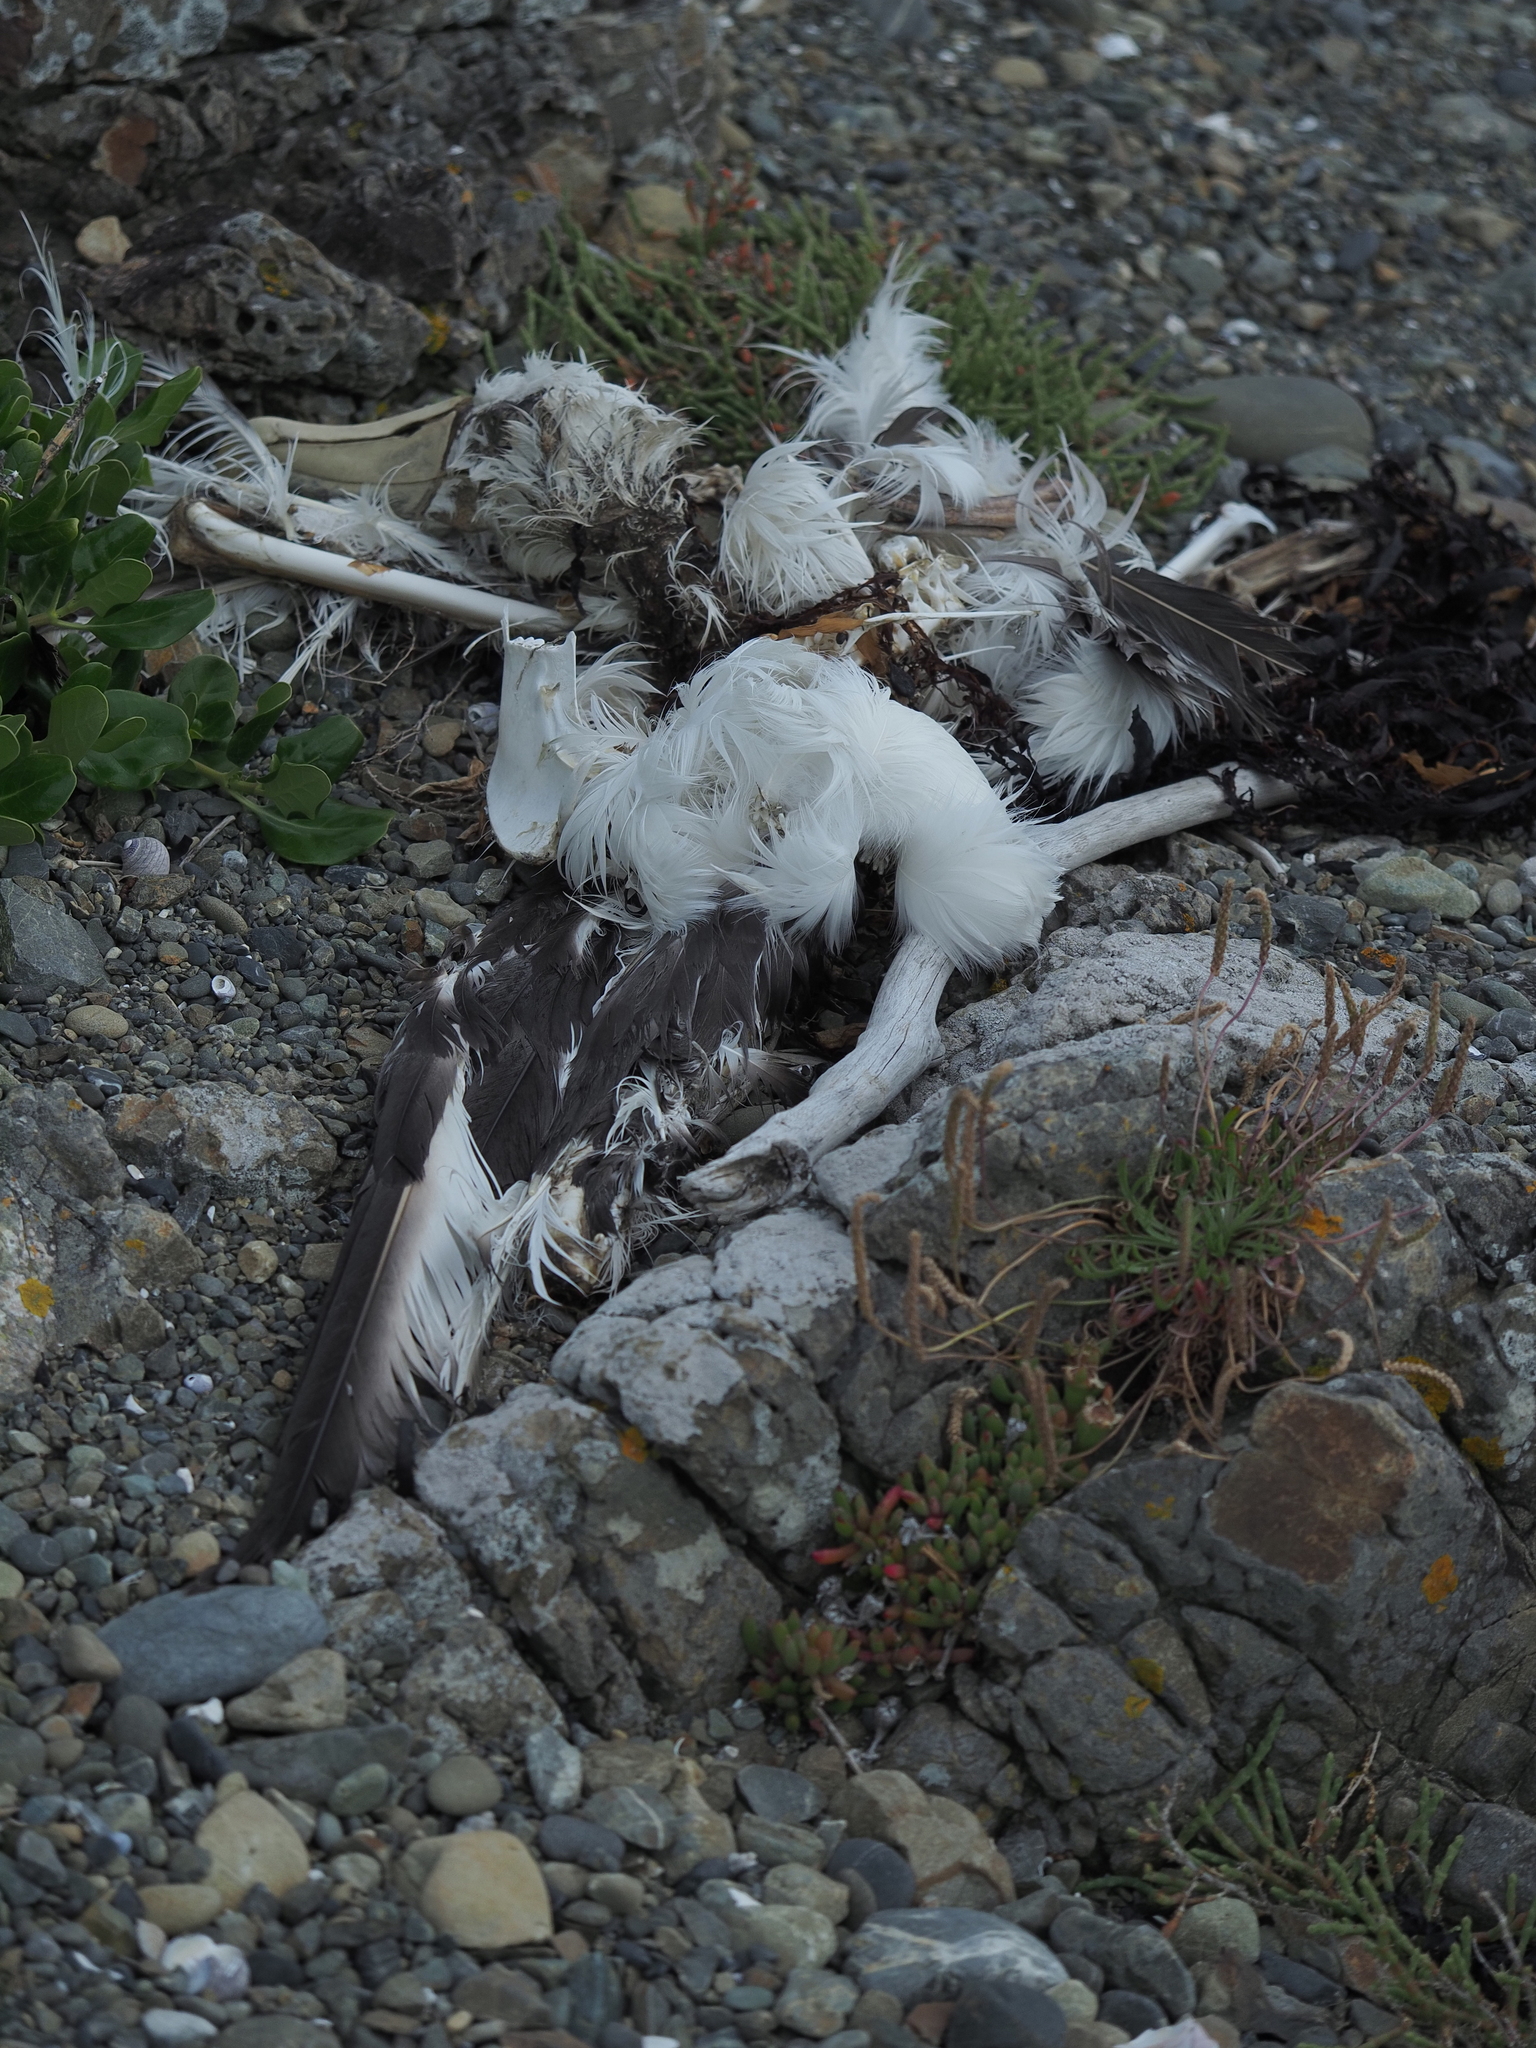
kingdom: Animalia
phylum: Chordata
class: Aves
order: Procellariiformes
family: Diomedeidae
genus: Thalassarche
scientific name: Thalassarche cauta
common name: Shy albatross
